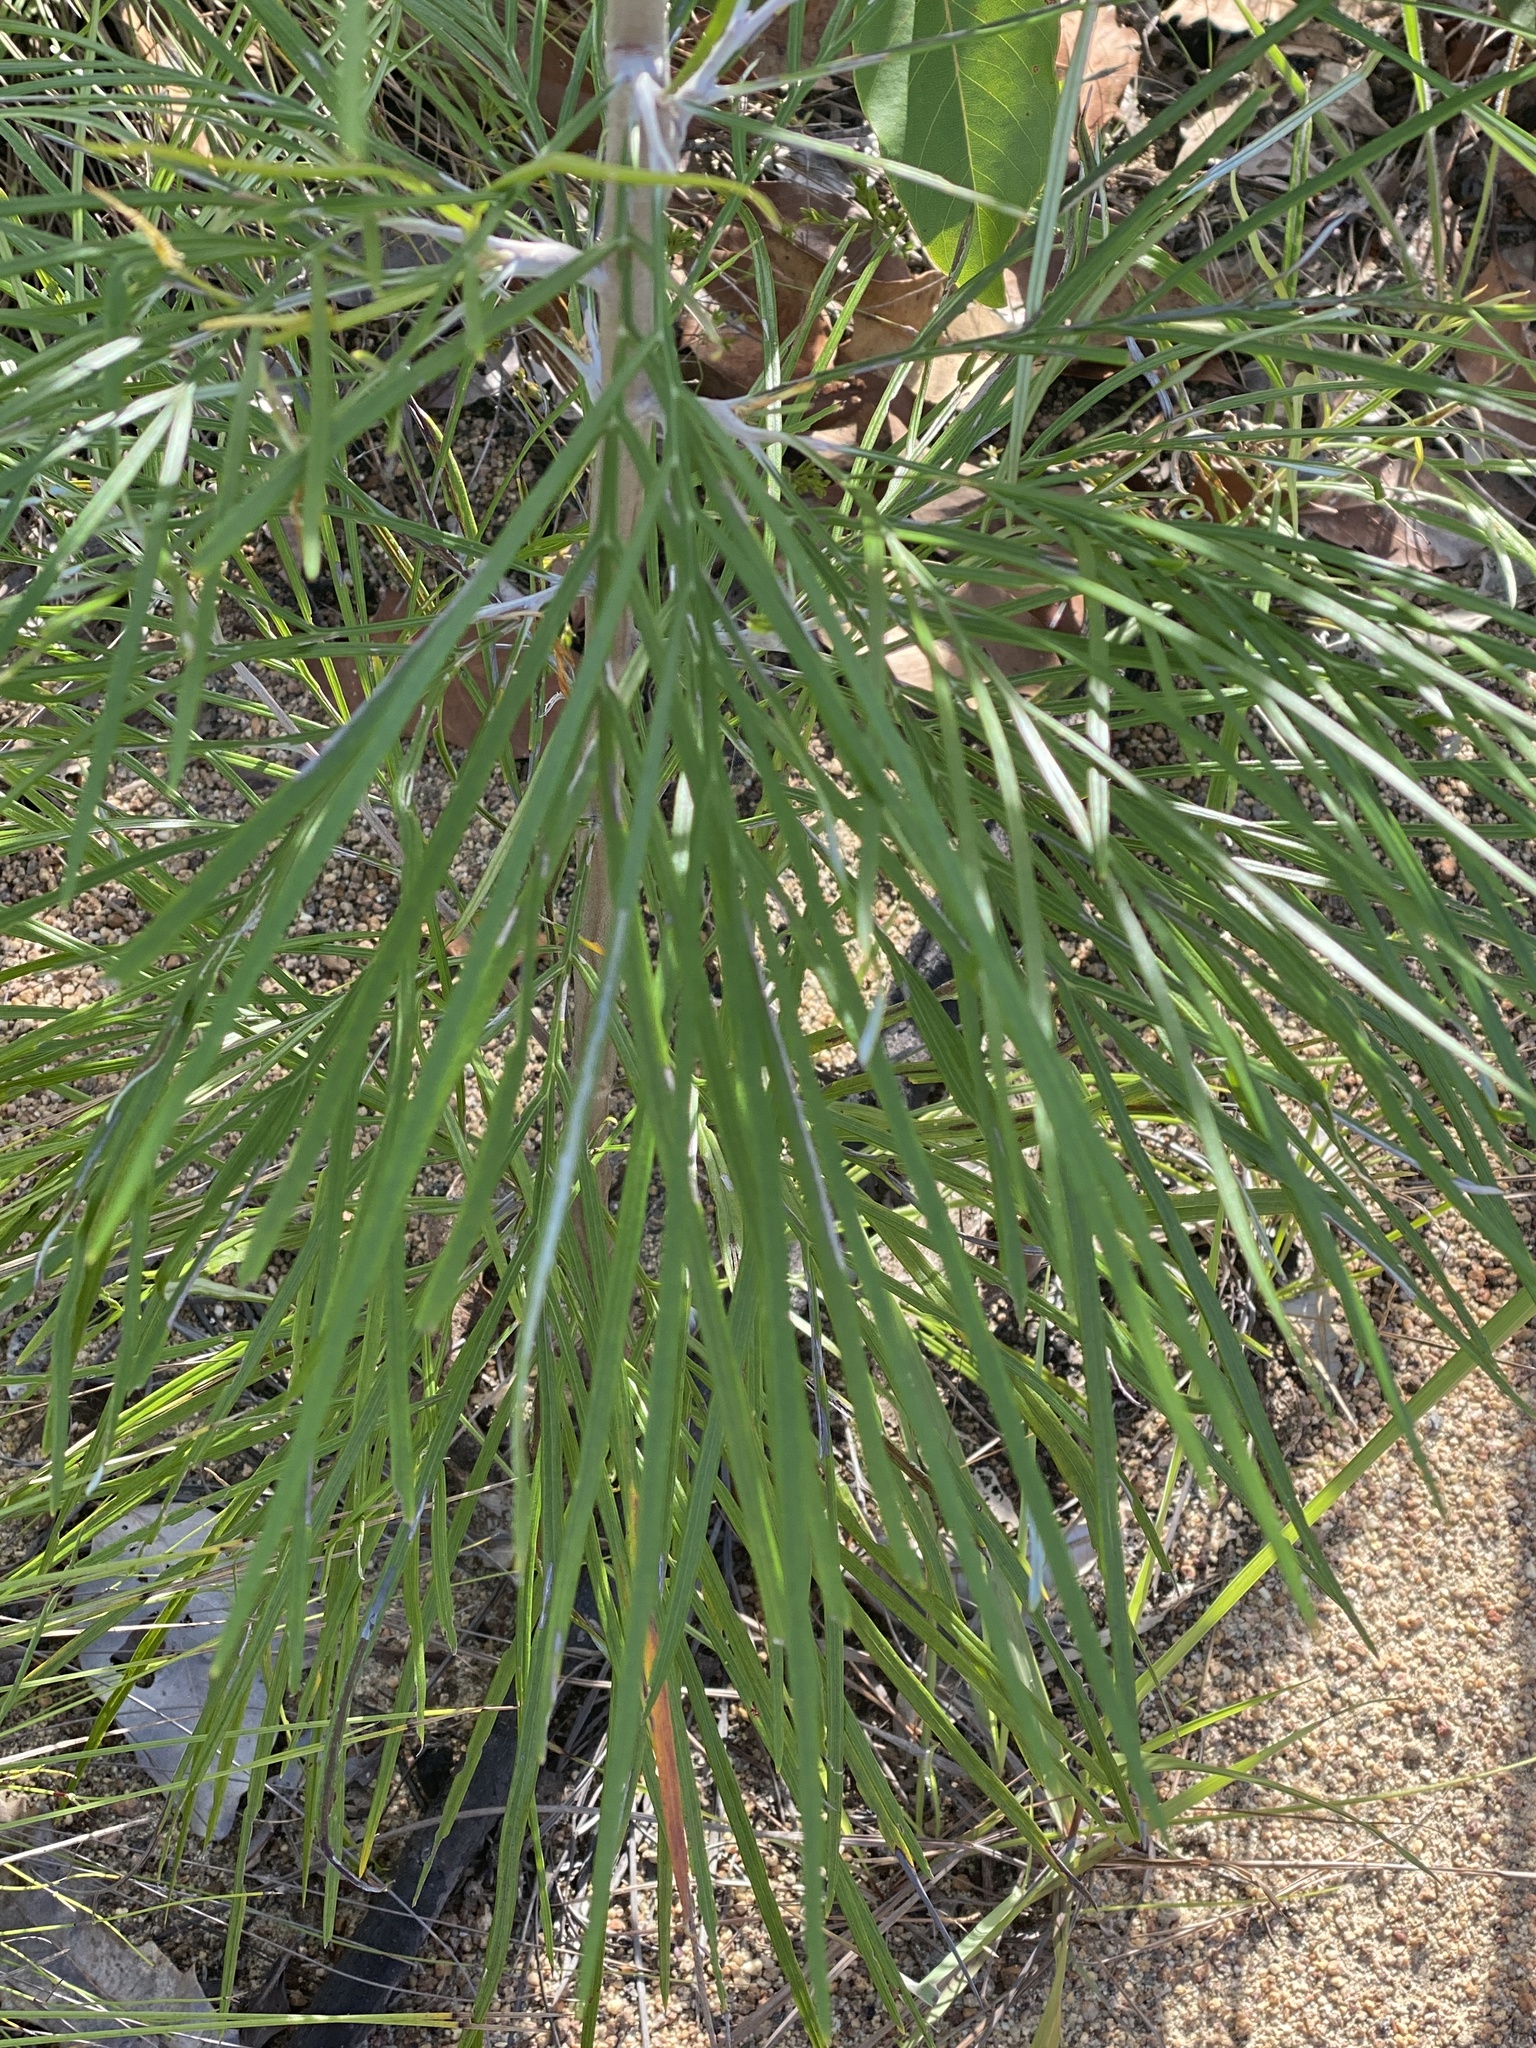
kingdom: Plantae
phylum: Tracheophyta
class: Magnoliopsida
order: Proteales
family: Proteaceae
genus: Grevillea
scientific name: Grevillea pteridifolia
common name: Golden grevillea
